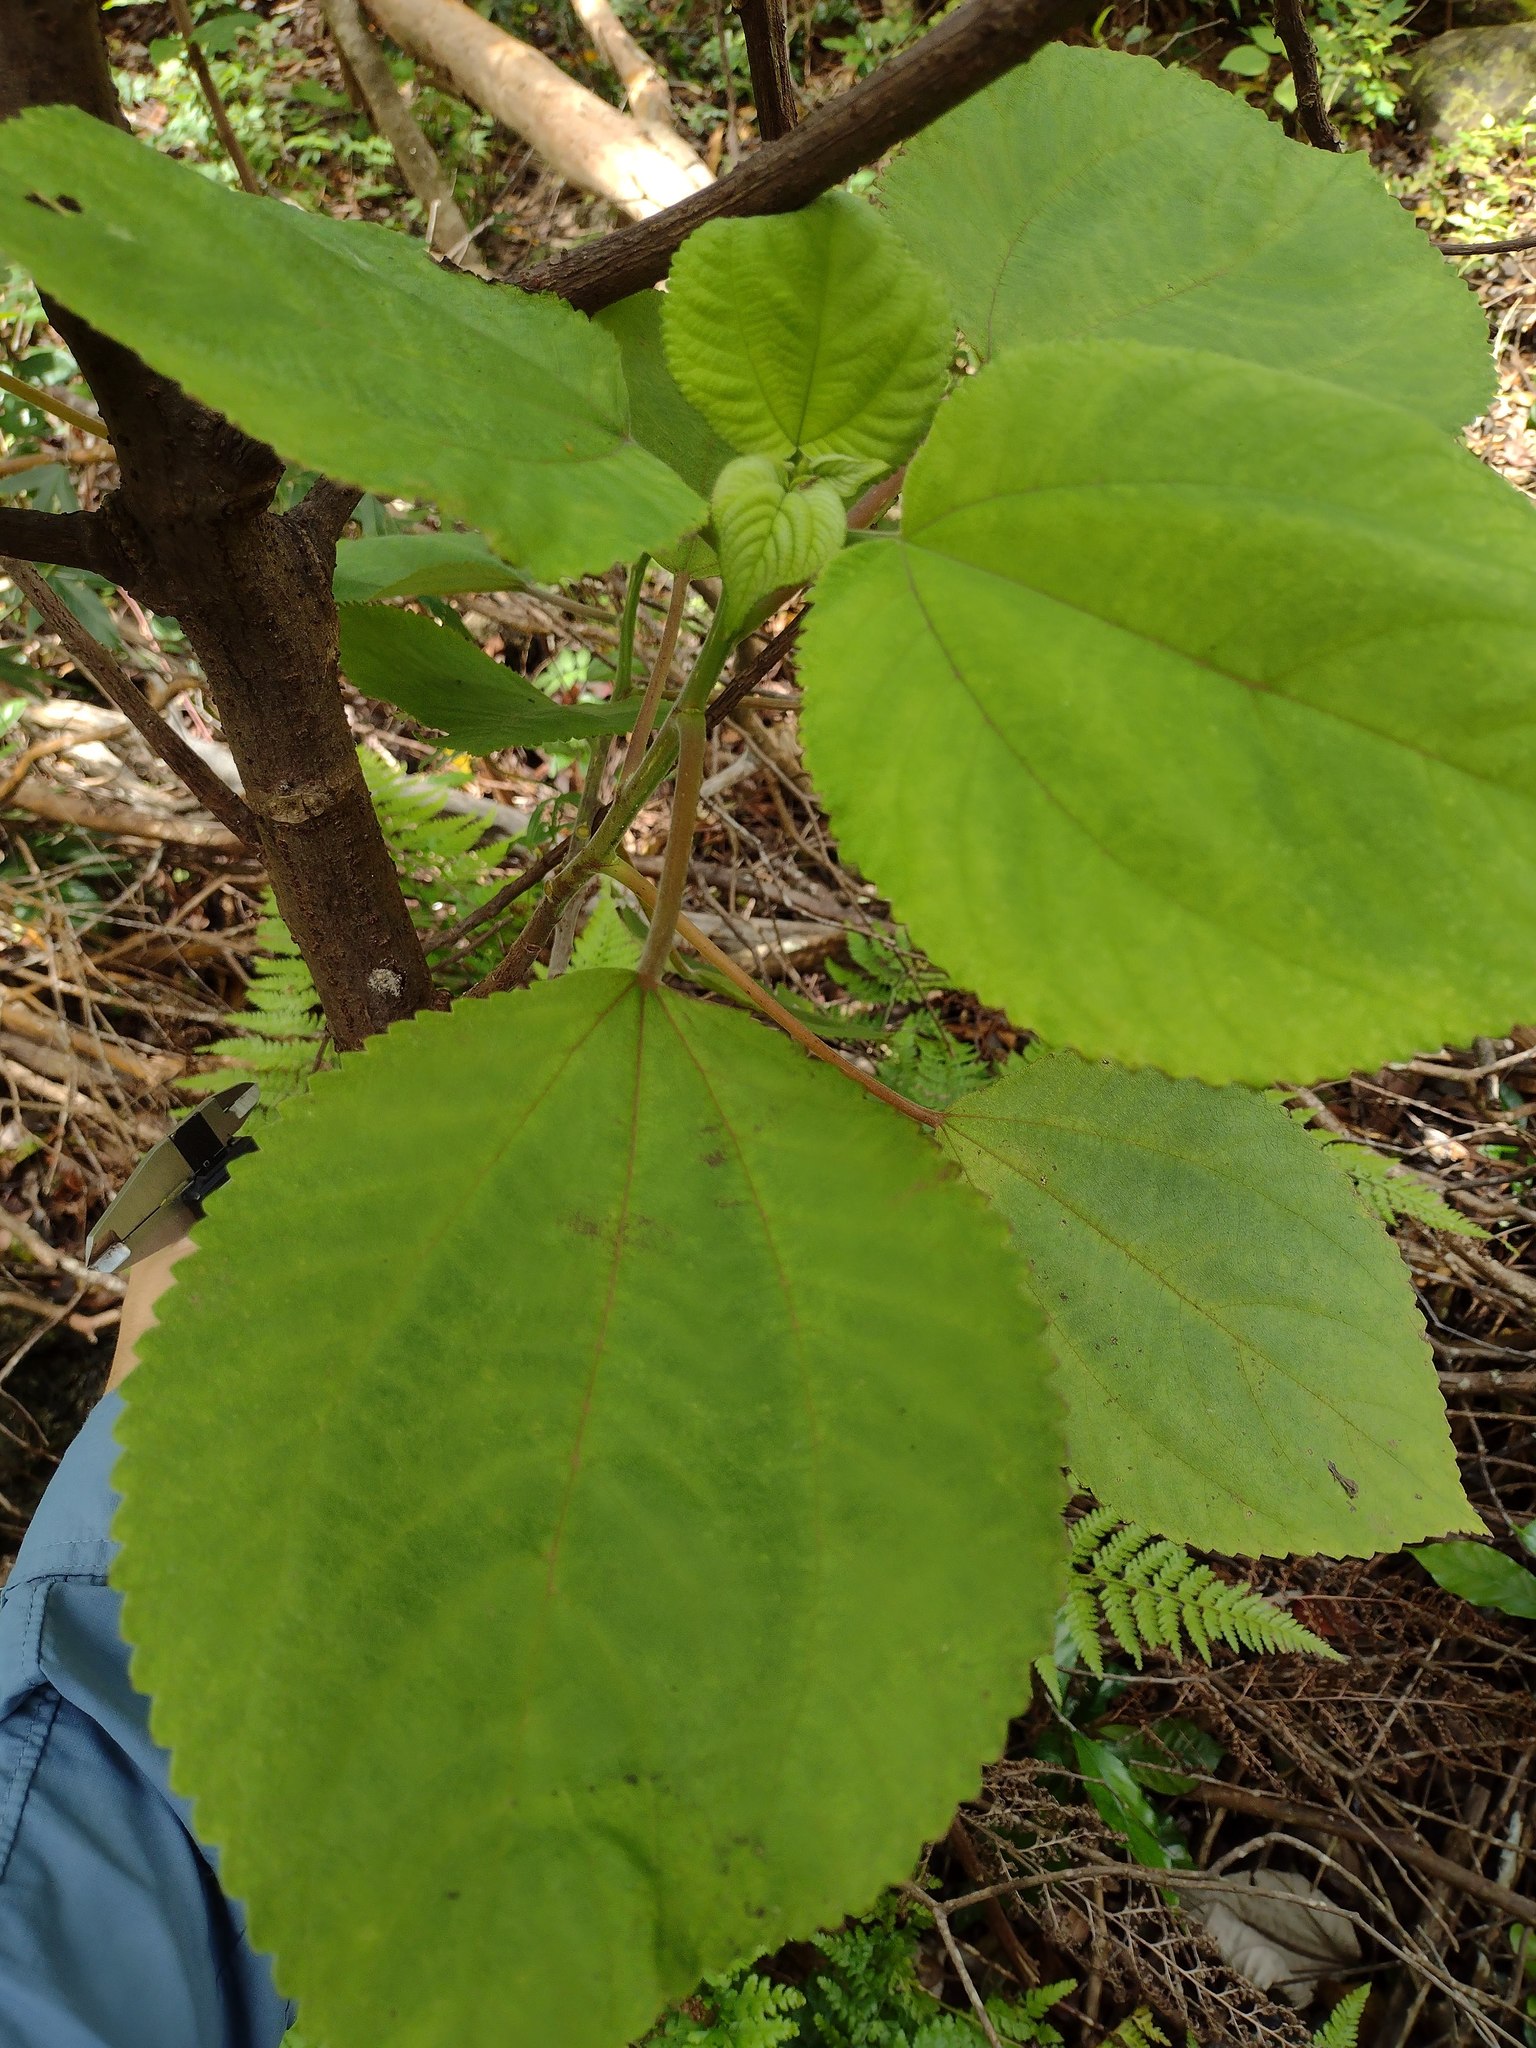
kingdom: Plantae
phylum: Tracheophyta
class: Magnoliopsida
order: Rosales
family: Urticaceae
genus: Pipturus
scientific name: Pipturus albidus
